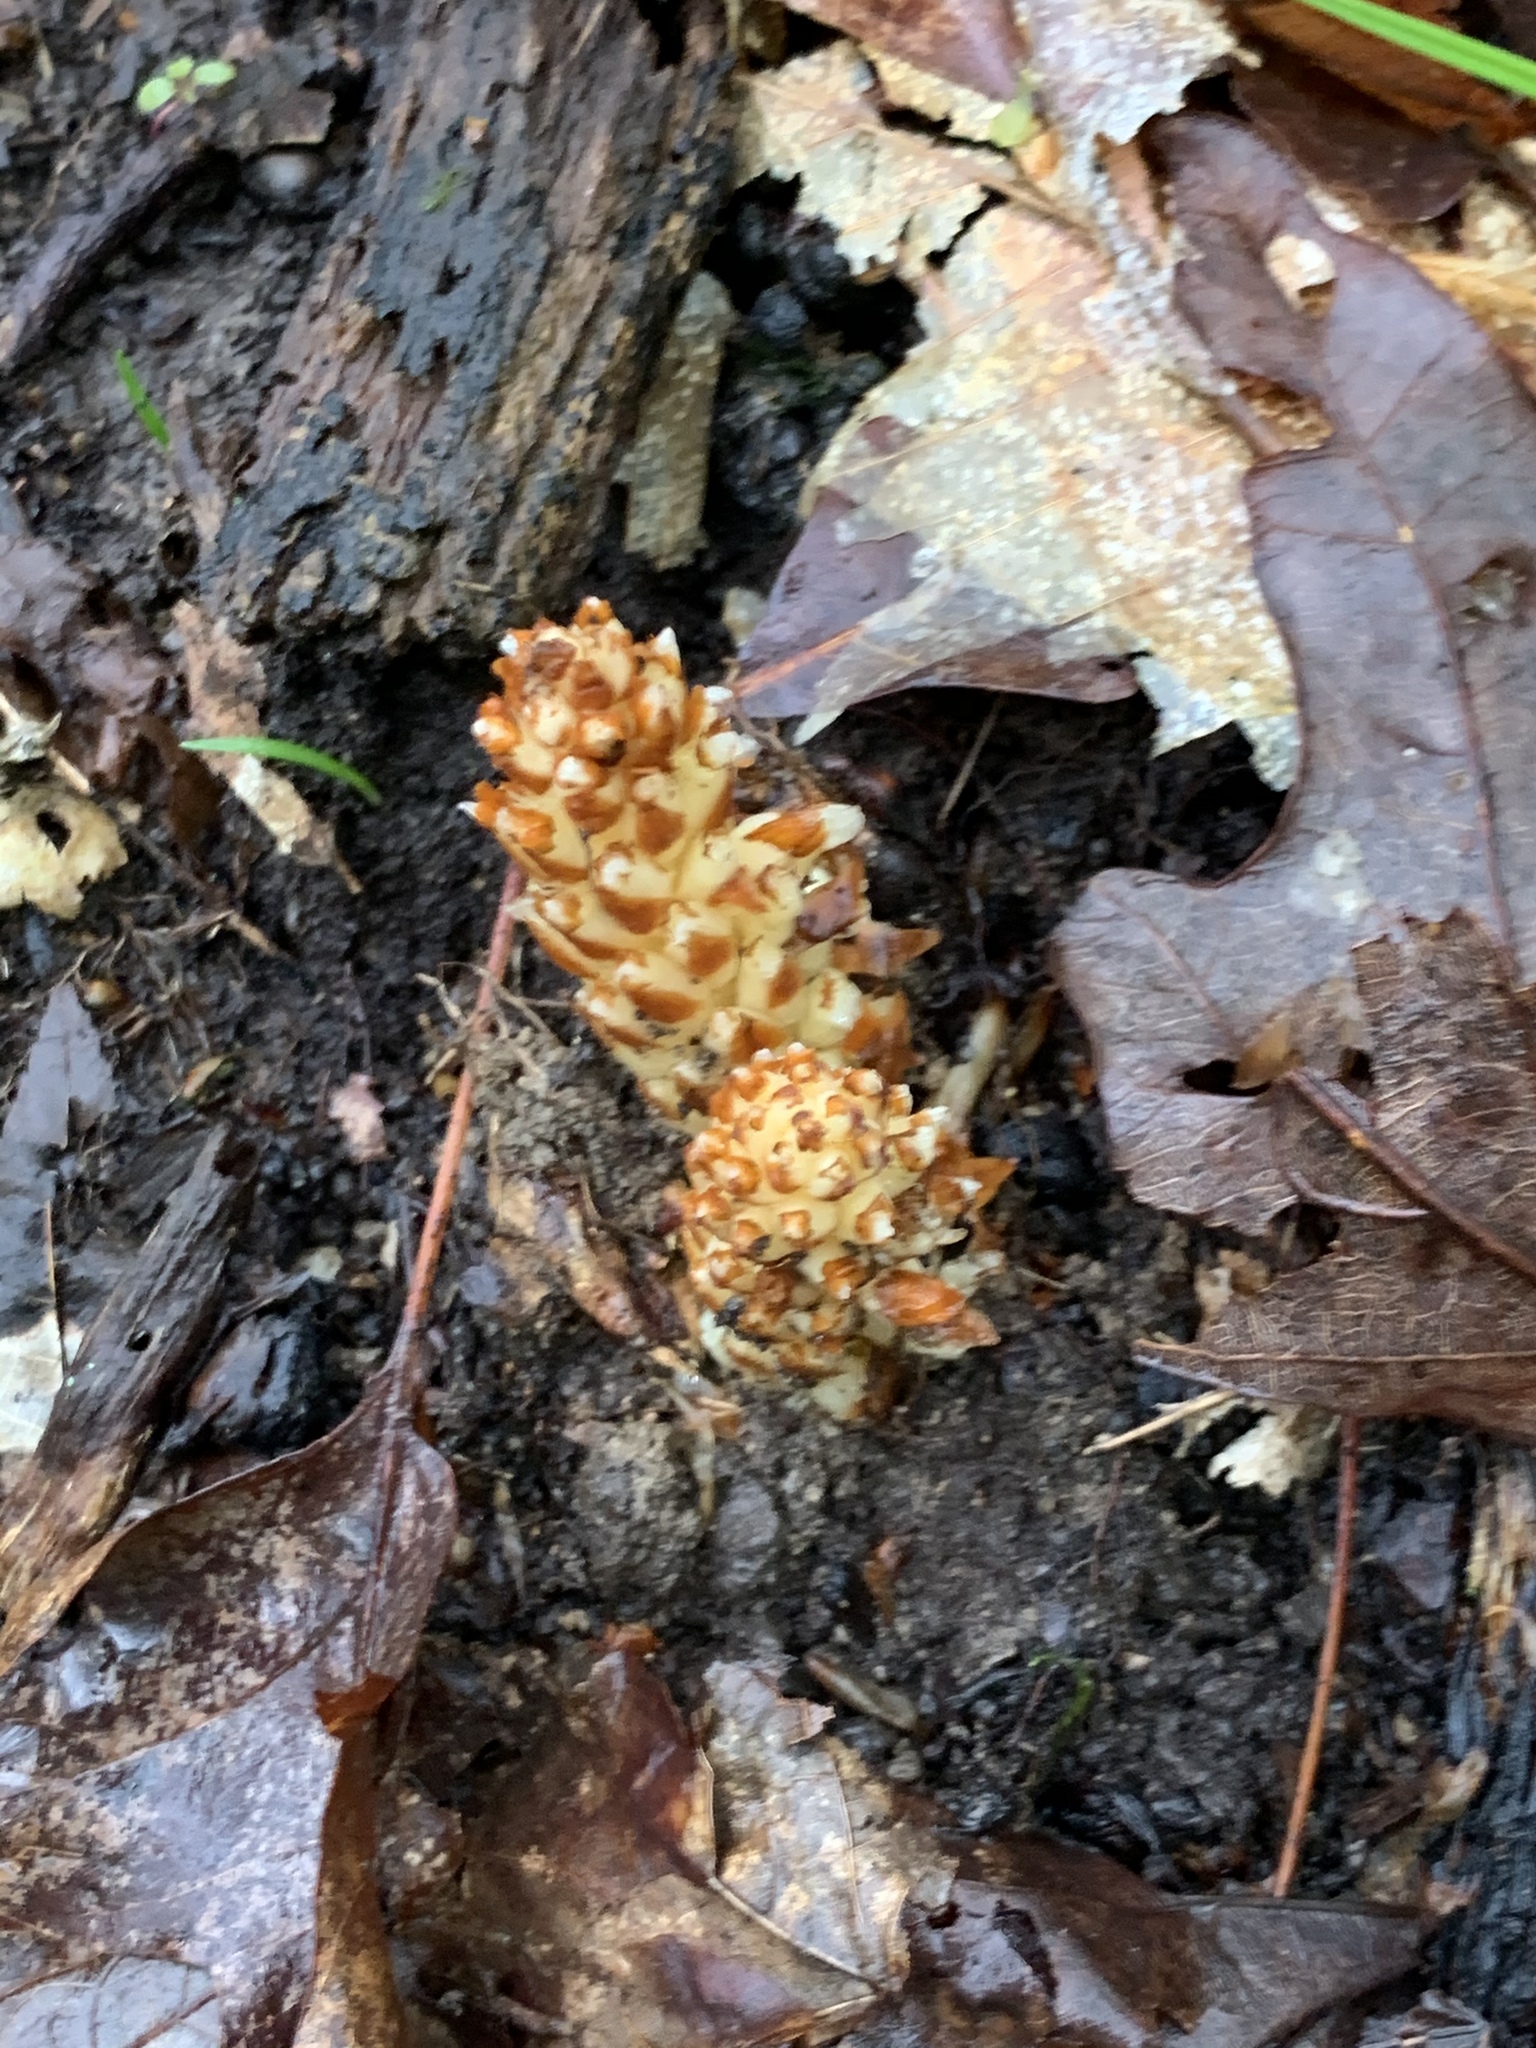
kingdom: Plantae
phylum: Tracheophyta
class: Magnoliopsida
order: Lamiales
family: Orobanchaceae
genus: Conopholis
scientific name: Conopholis americana
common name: American cancer-root
